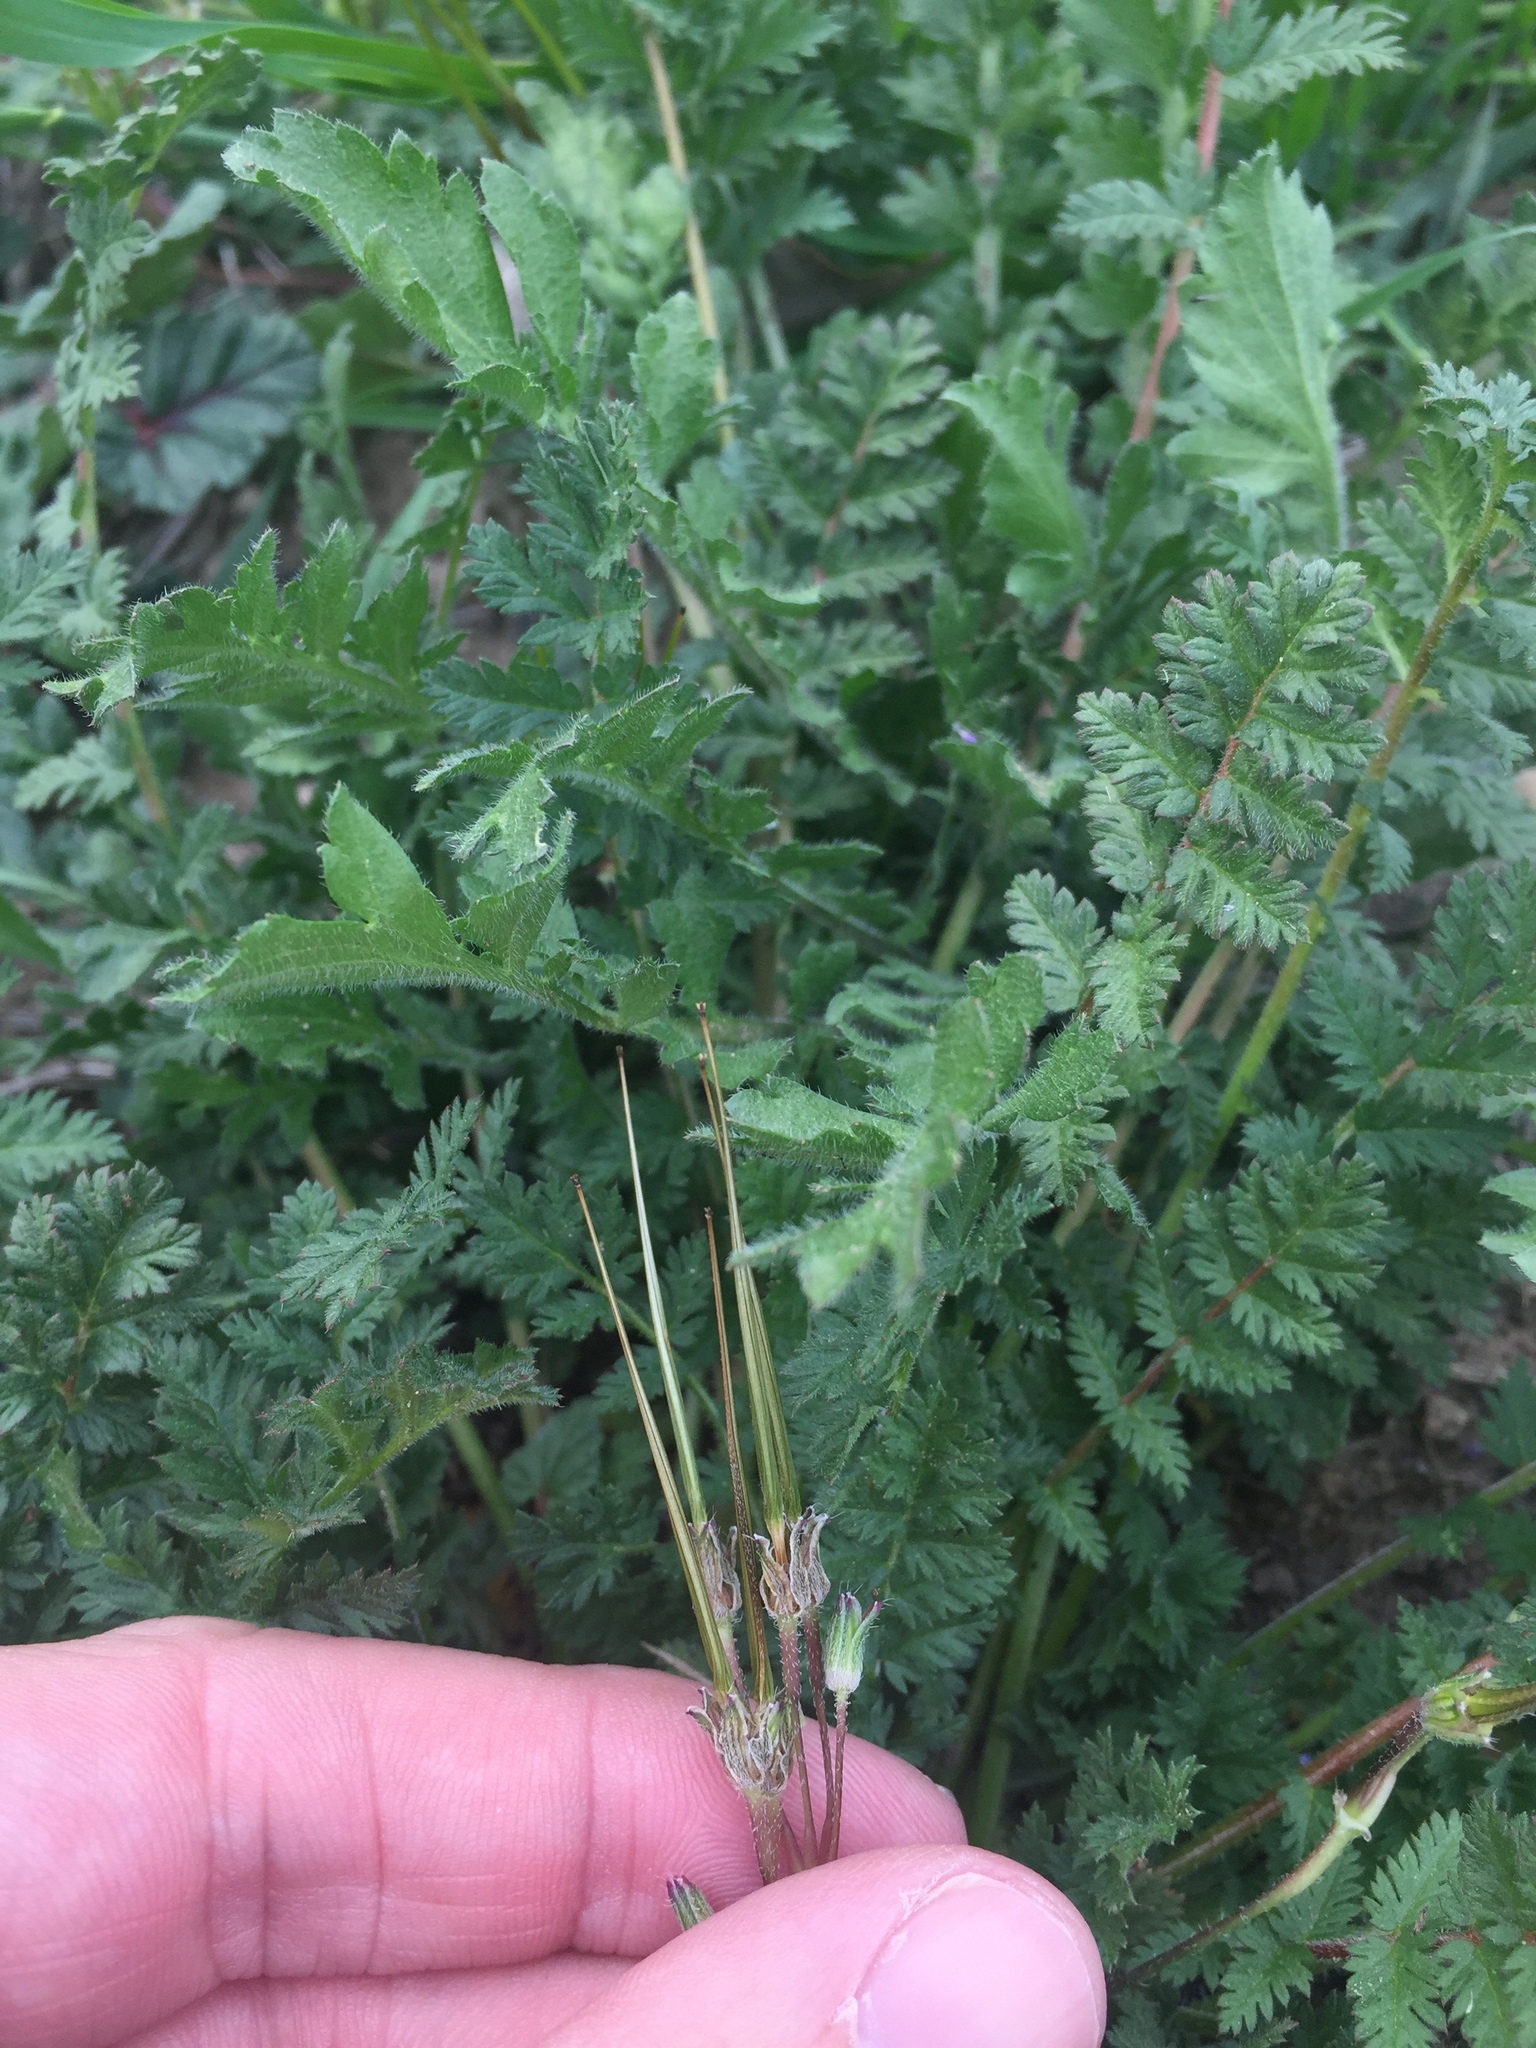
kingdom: Plantae
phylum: Tracheophyta
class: Magnoliopsida
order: Geraniales
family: Geraniaceae
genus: Erodium
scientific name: Erodium cicutarium
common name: Common stork's-bill
